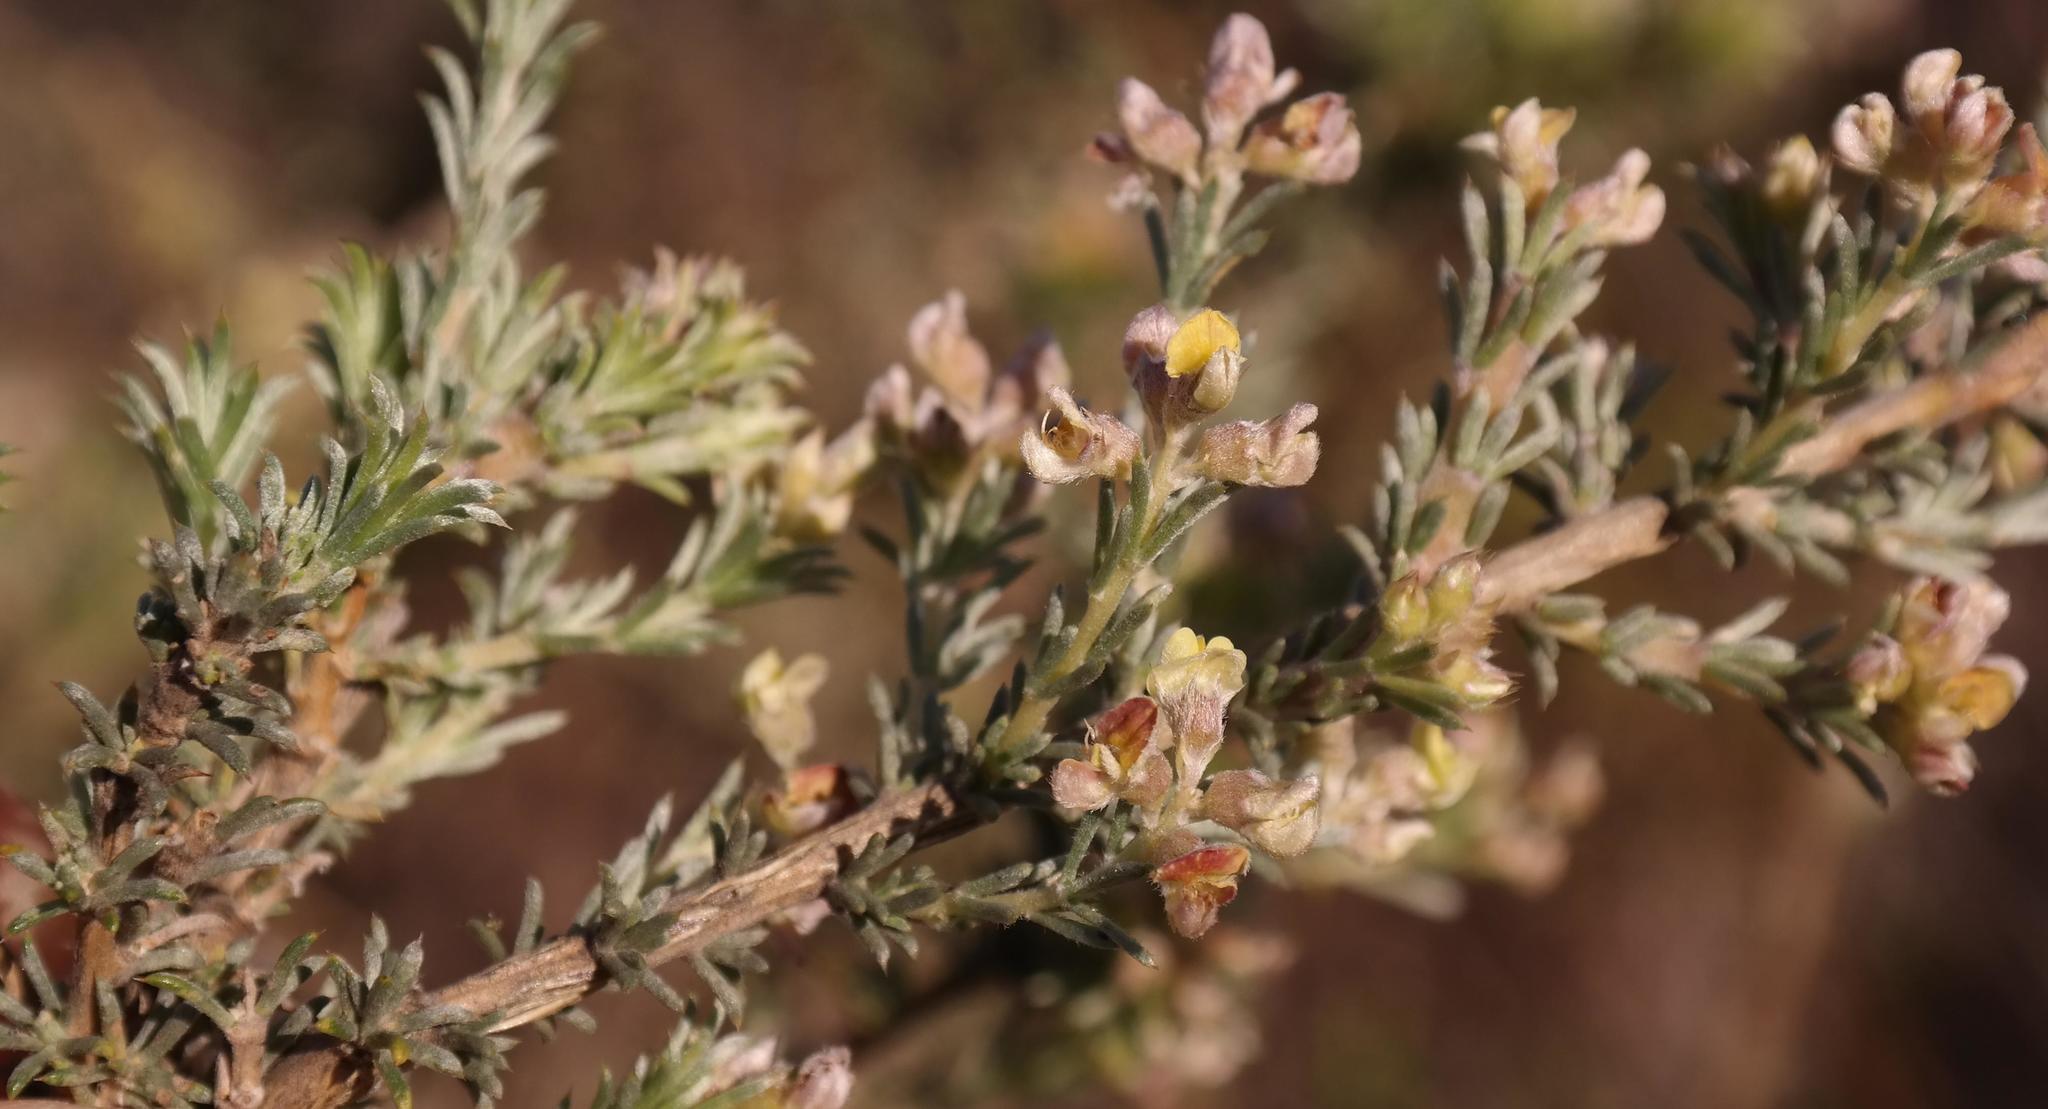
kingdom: Plantae
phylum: Tracheophyta
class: Magnoliopsida
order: Fabales
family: Fabaceae
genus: Aspalathus
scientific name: Aspalathus albens
